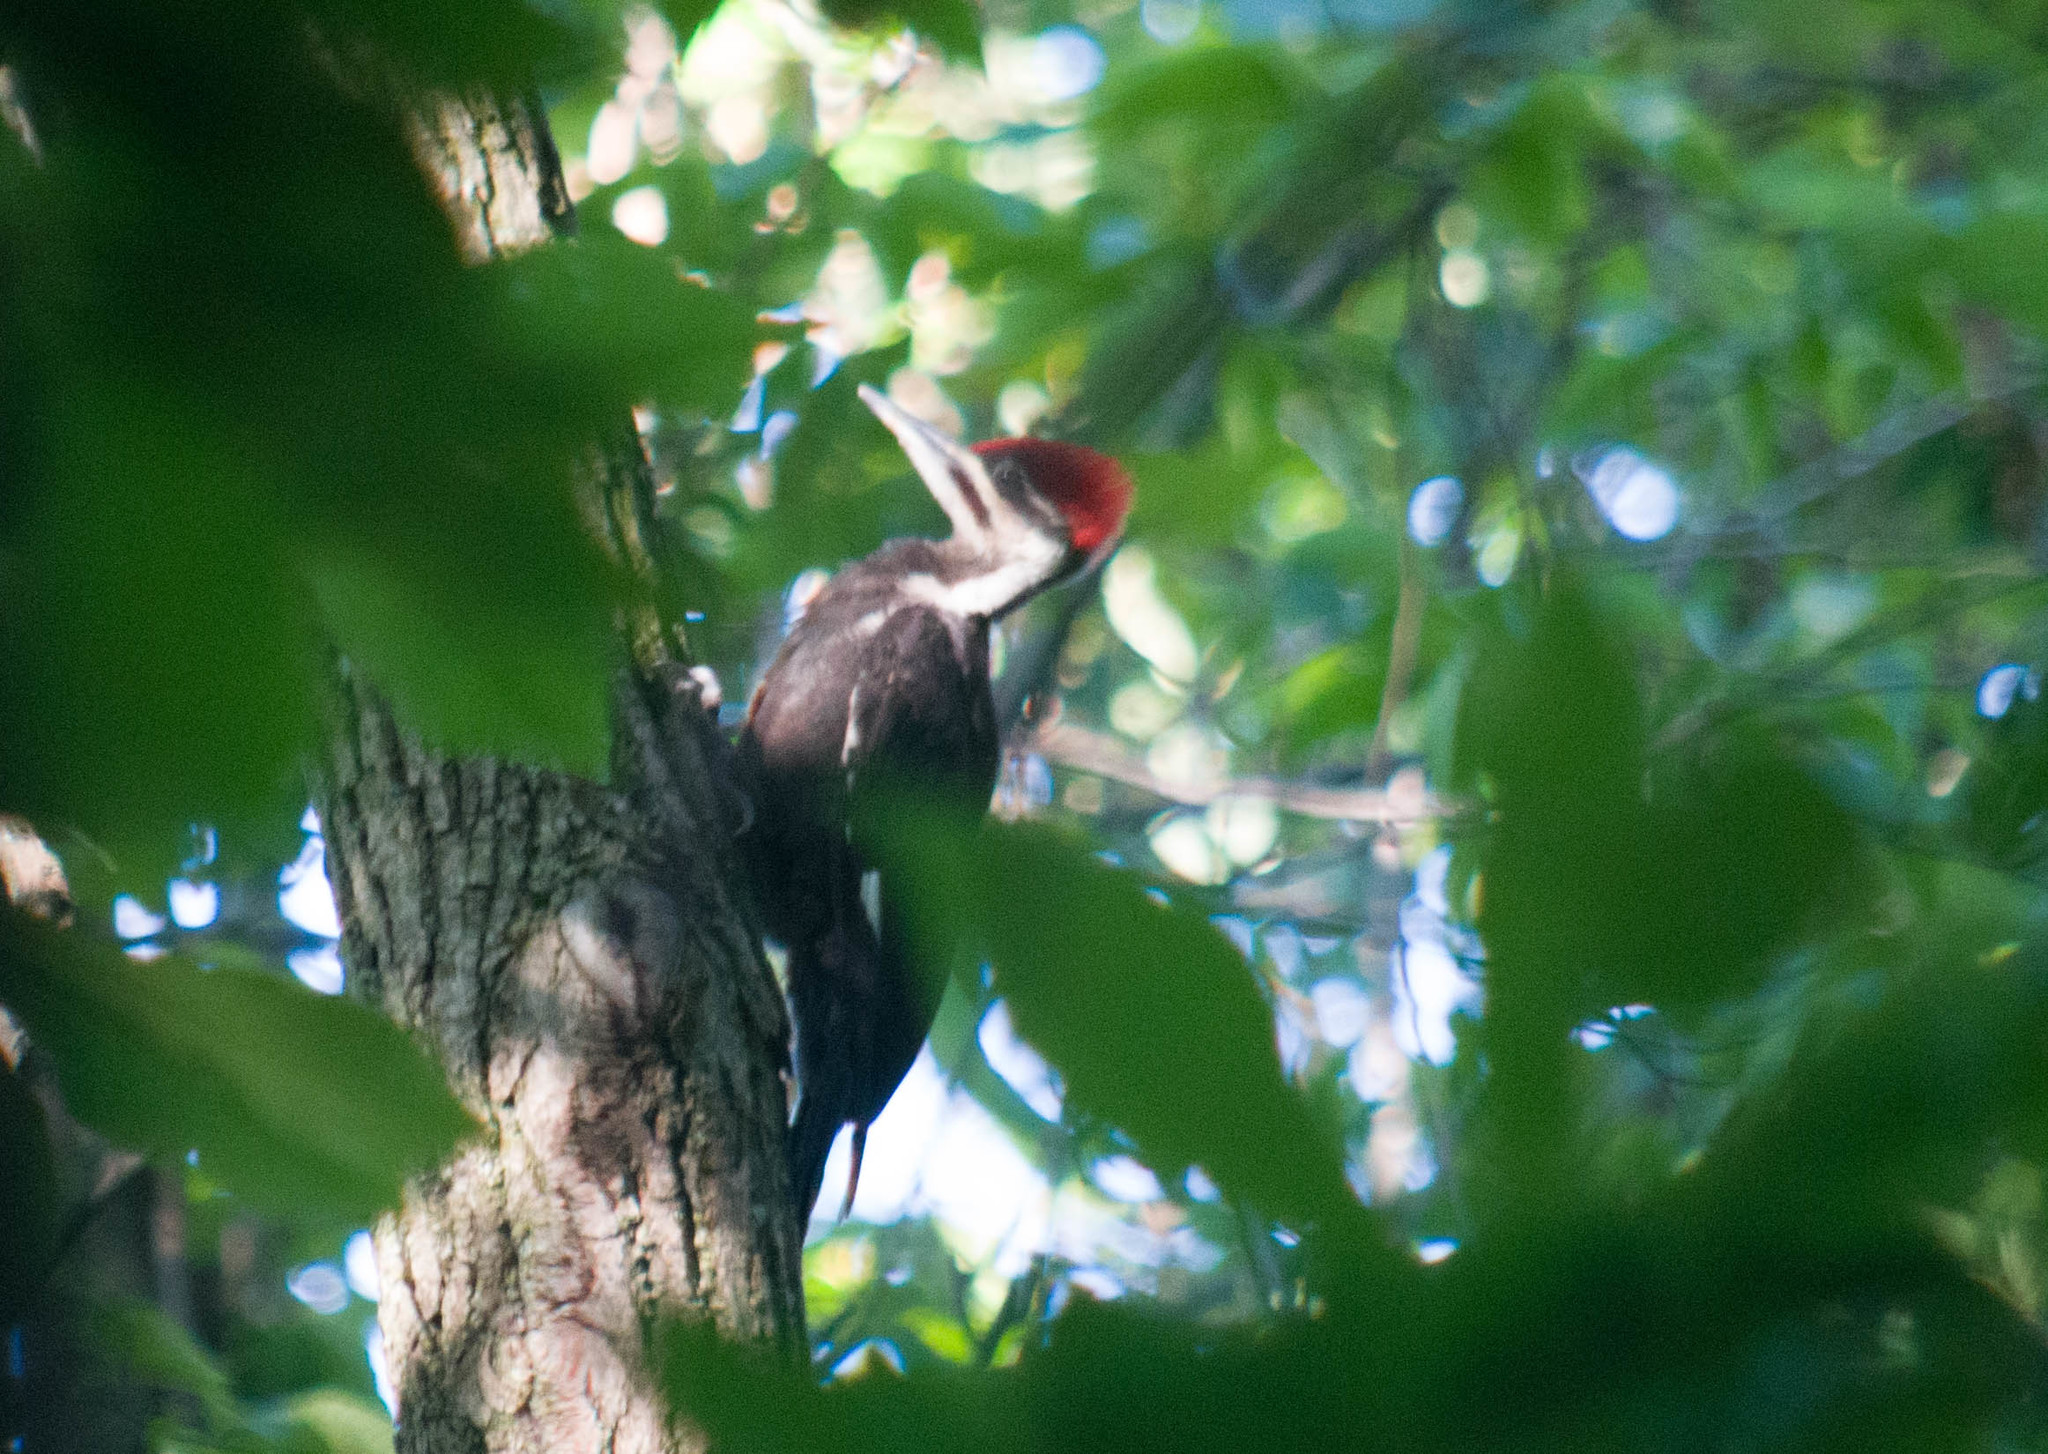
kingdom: Animalia
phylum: Chordata
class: Aves
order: Piciformes
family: Picidae
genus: Dryocopus
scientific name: Dryocopus pileatus
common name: Pileated woodpecker
